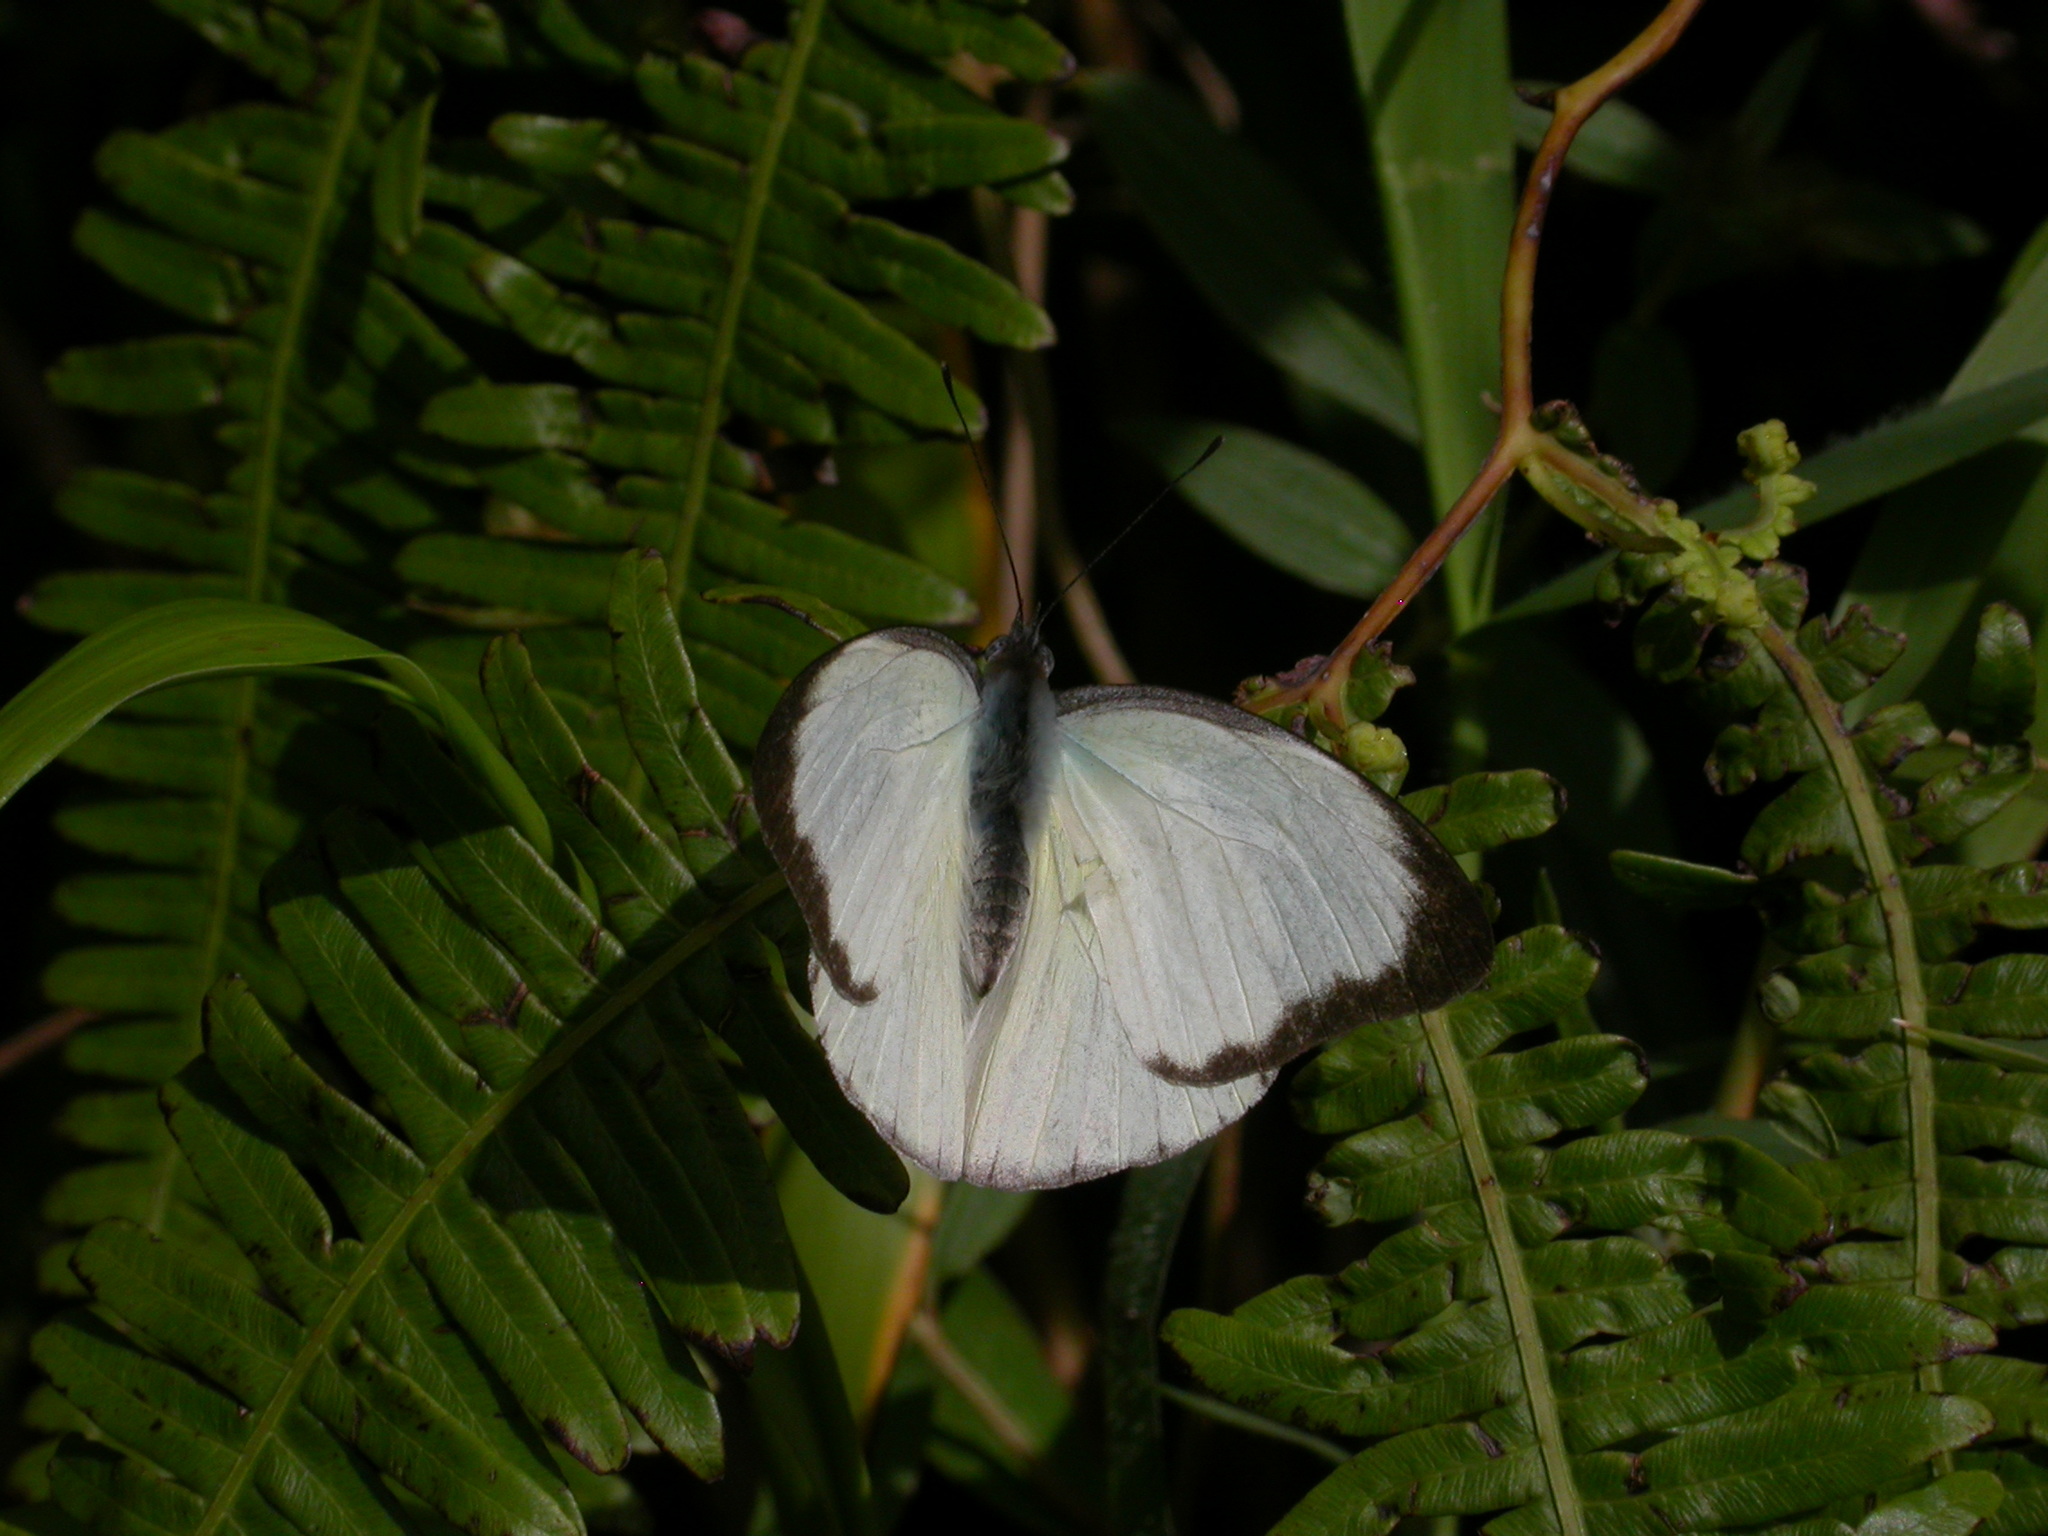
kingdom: Animalia
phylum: Arthropoda
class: Insecta
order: Lepidoptera
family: Pieridae
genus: Glutophrissa
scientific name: Glutophrissa drusilla
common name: Florida white
